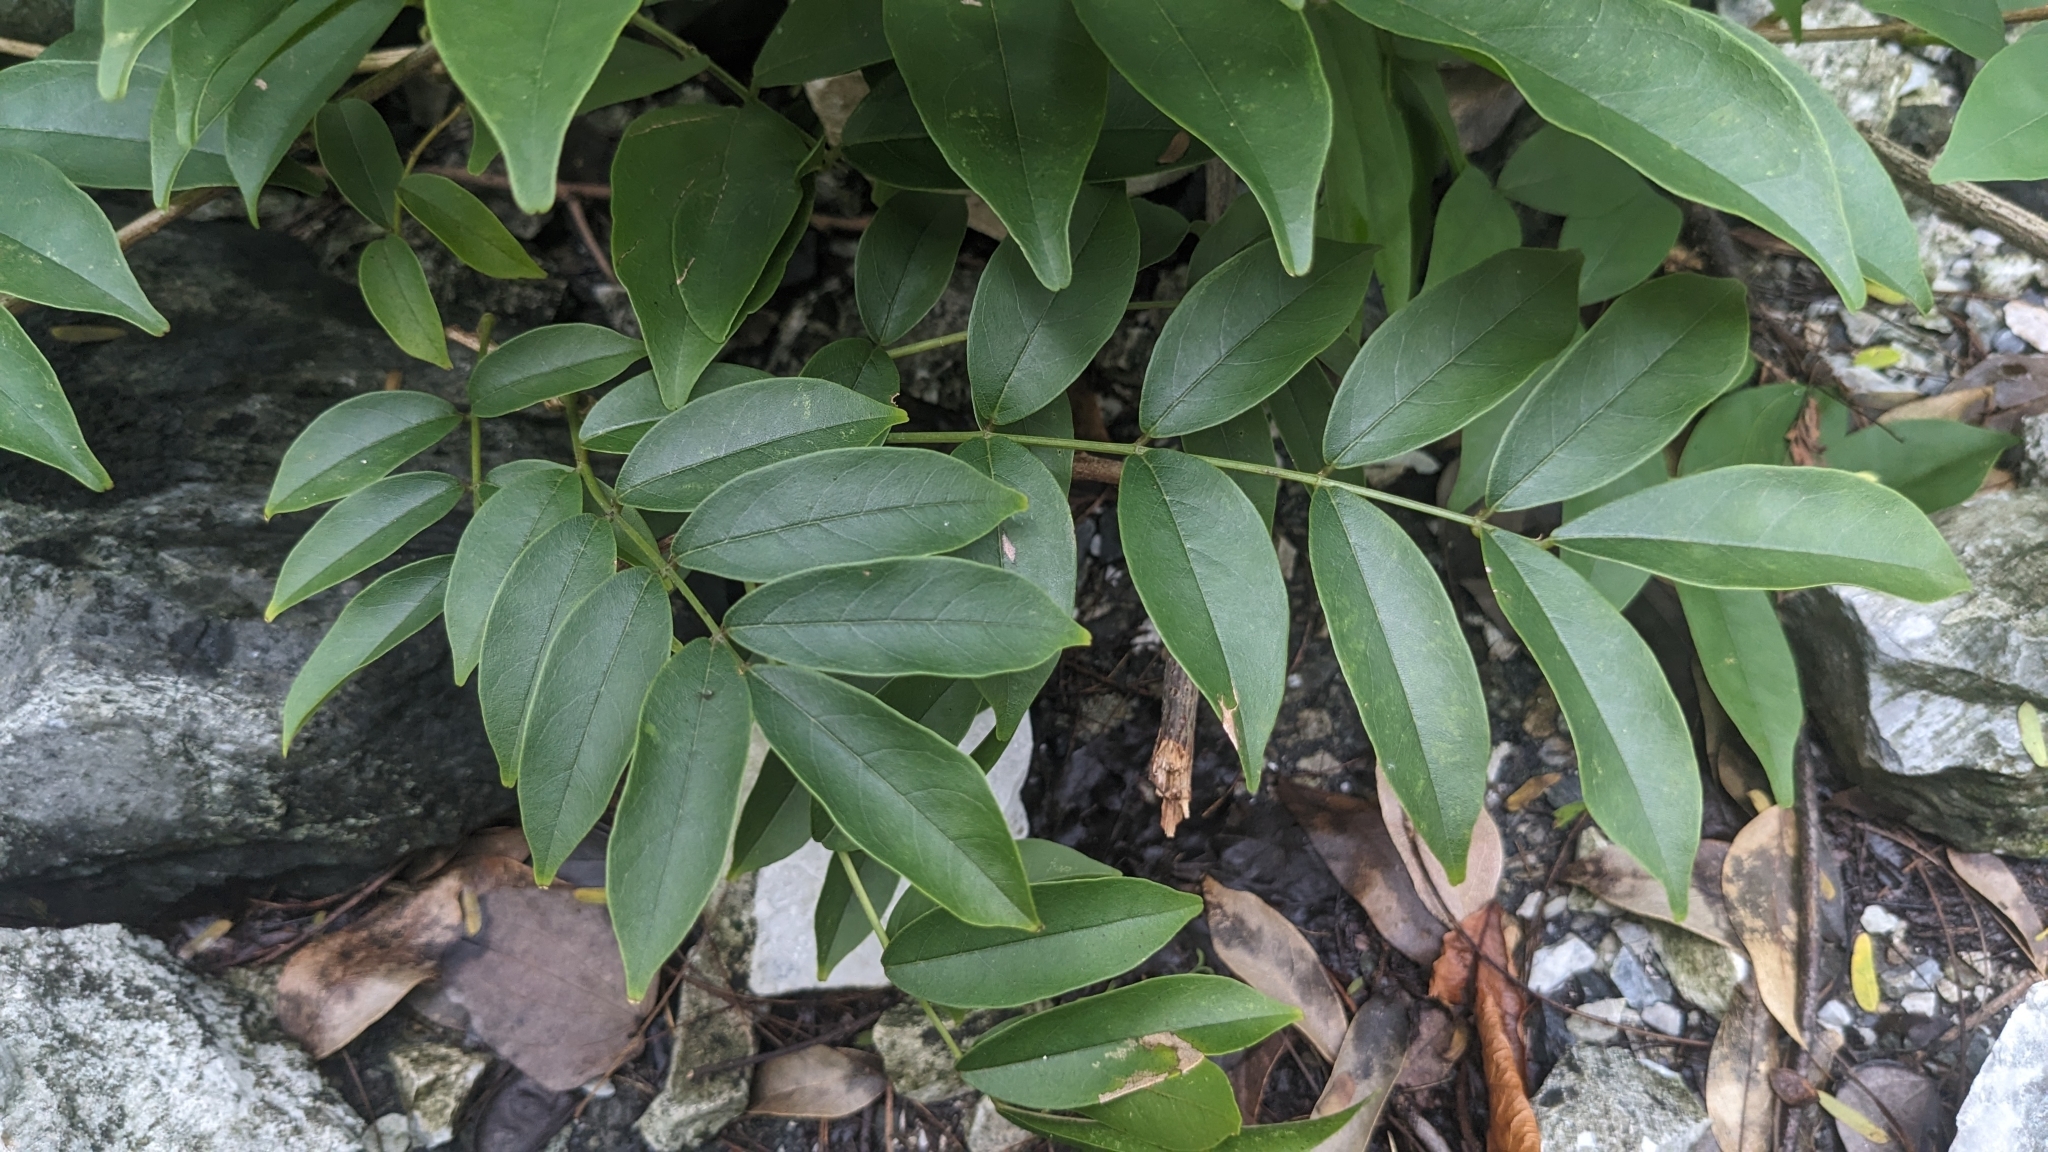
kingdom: Plantae
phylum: Tracheophyta
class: Magnoliopsida
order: Fabales
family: Fabaceae
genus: Wisteriopsis
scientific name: Wisteriopsis reticulata
